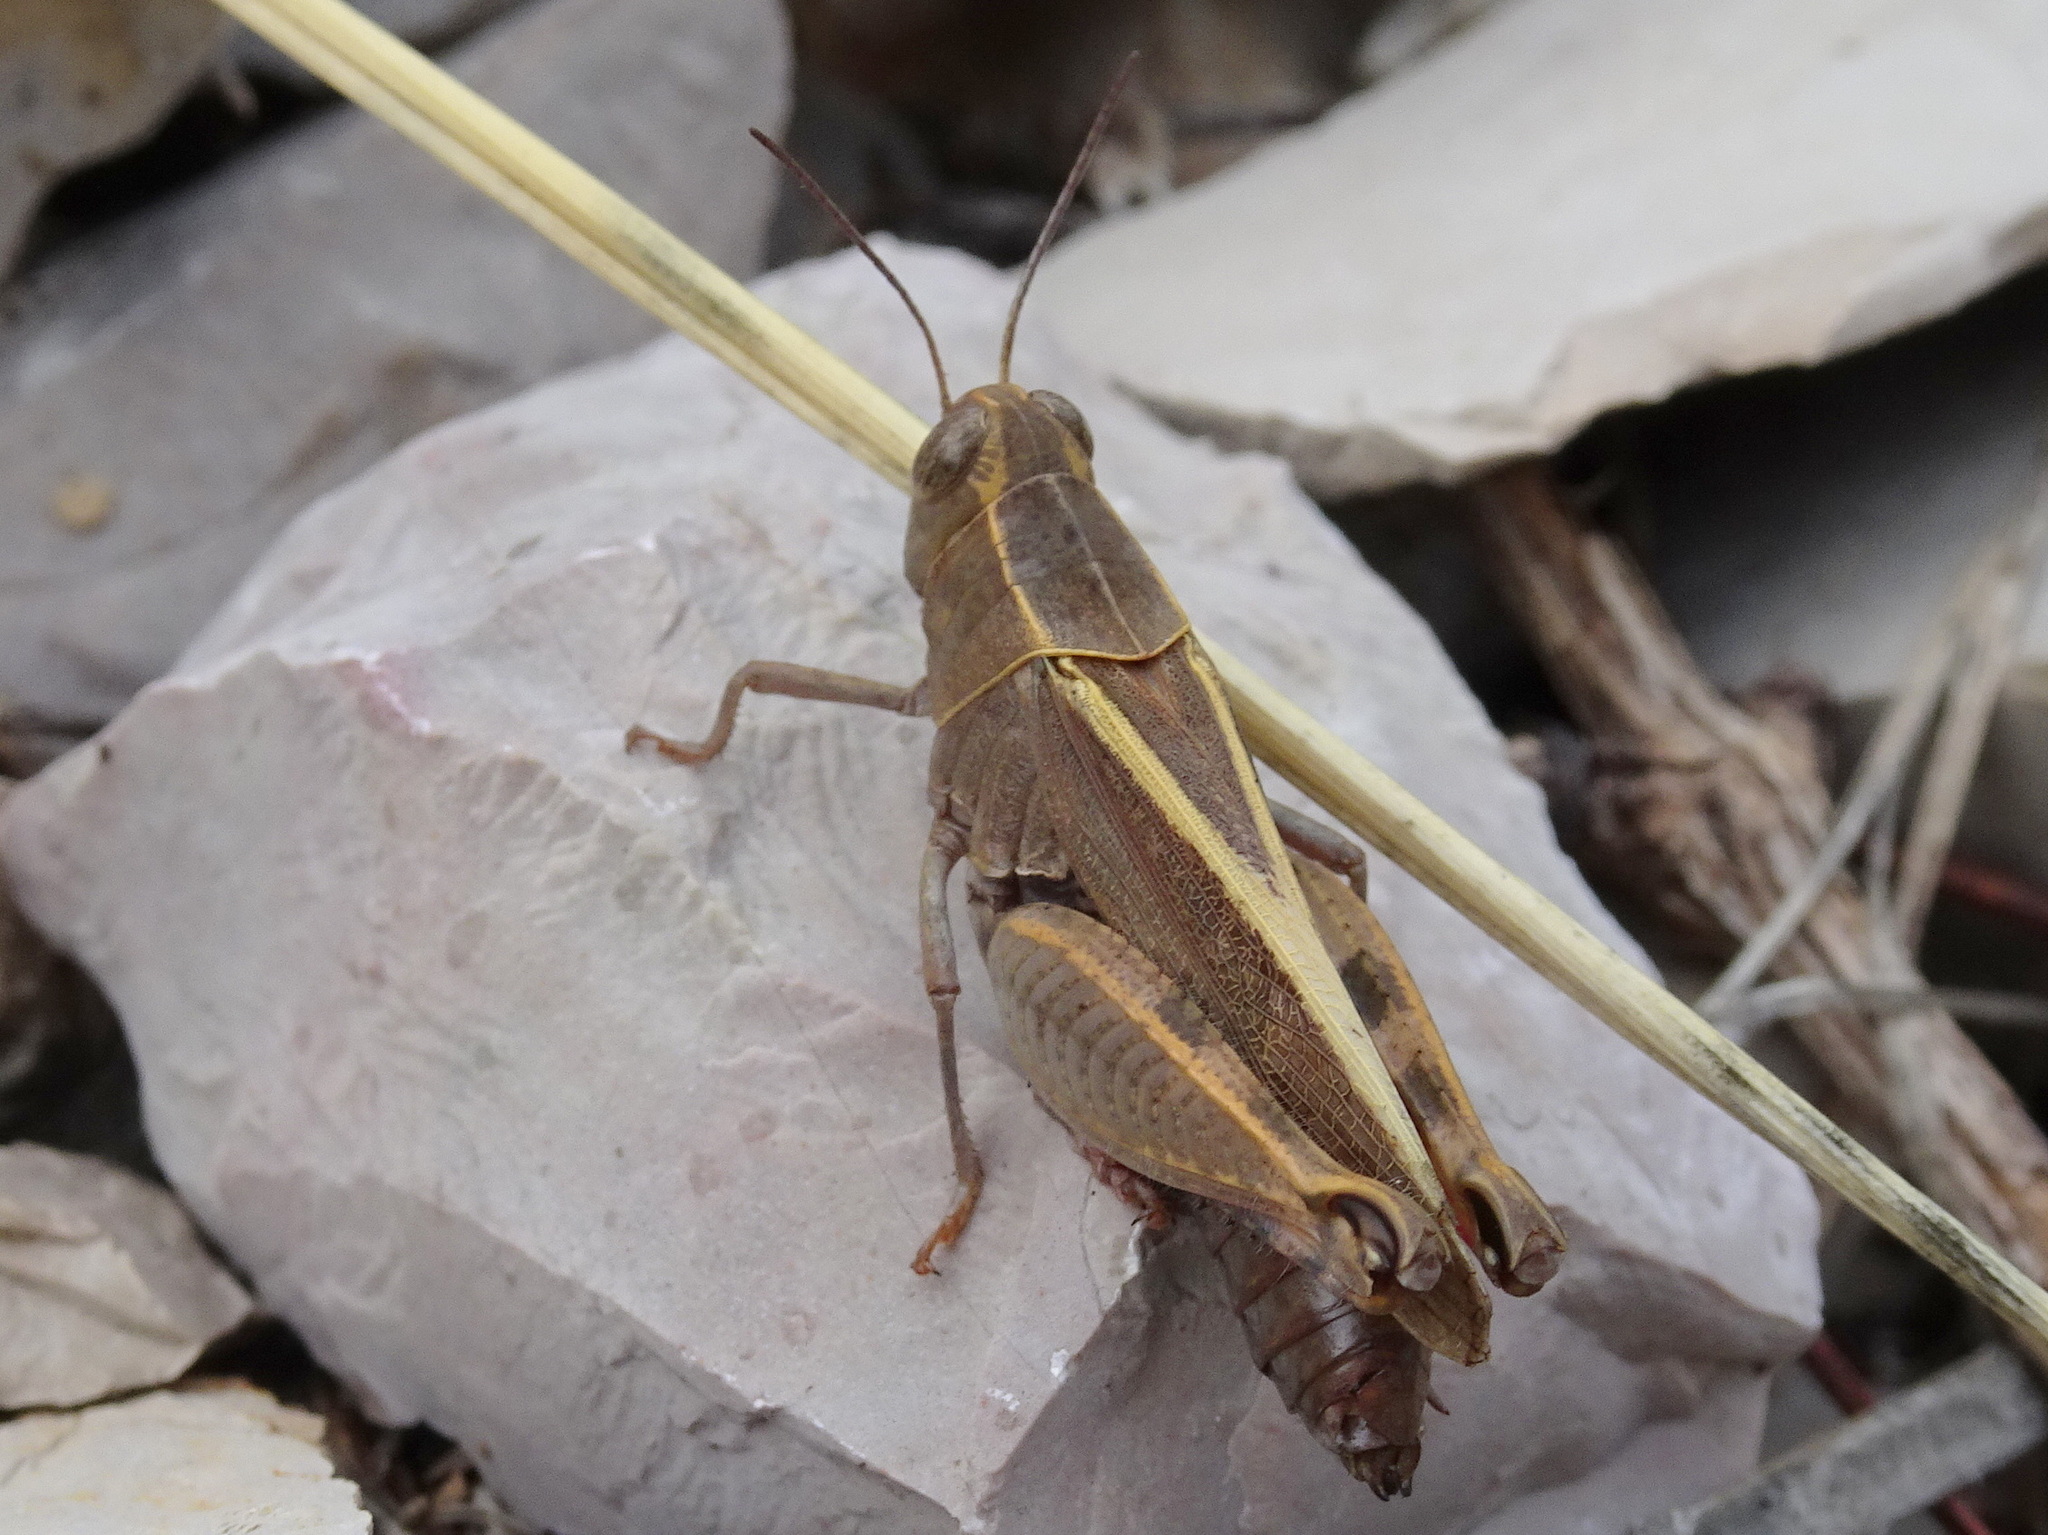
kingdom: Animalia
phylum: Arthropoda
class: Insecta
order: Orthoptera
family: Acrididae
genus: Calliptamus
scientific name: Calliptamus
